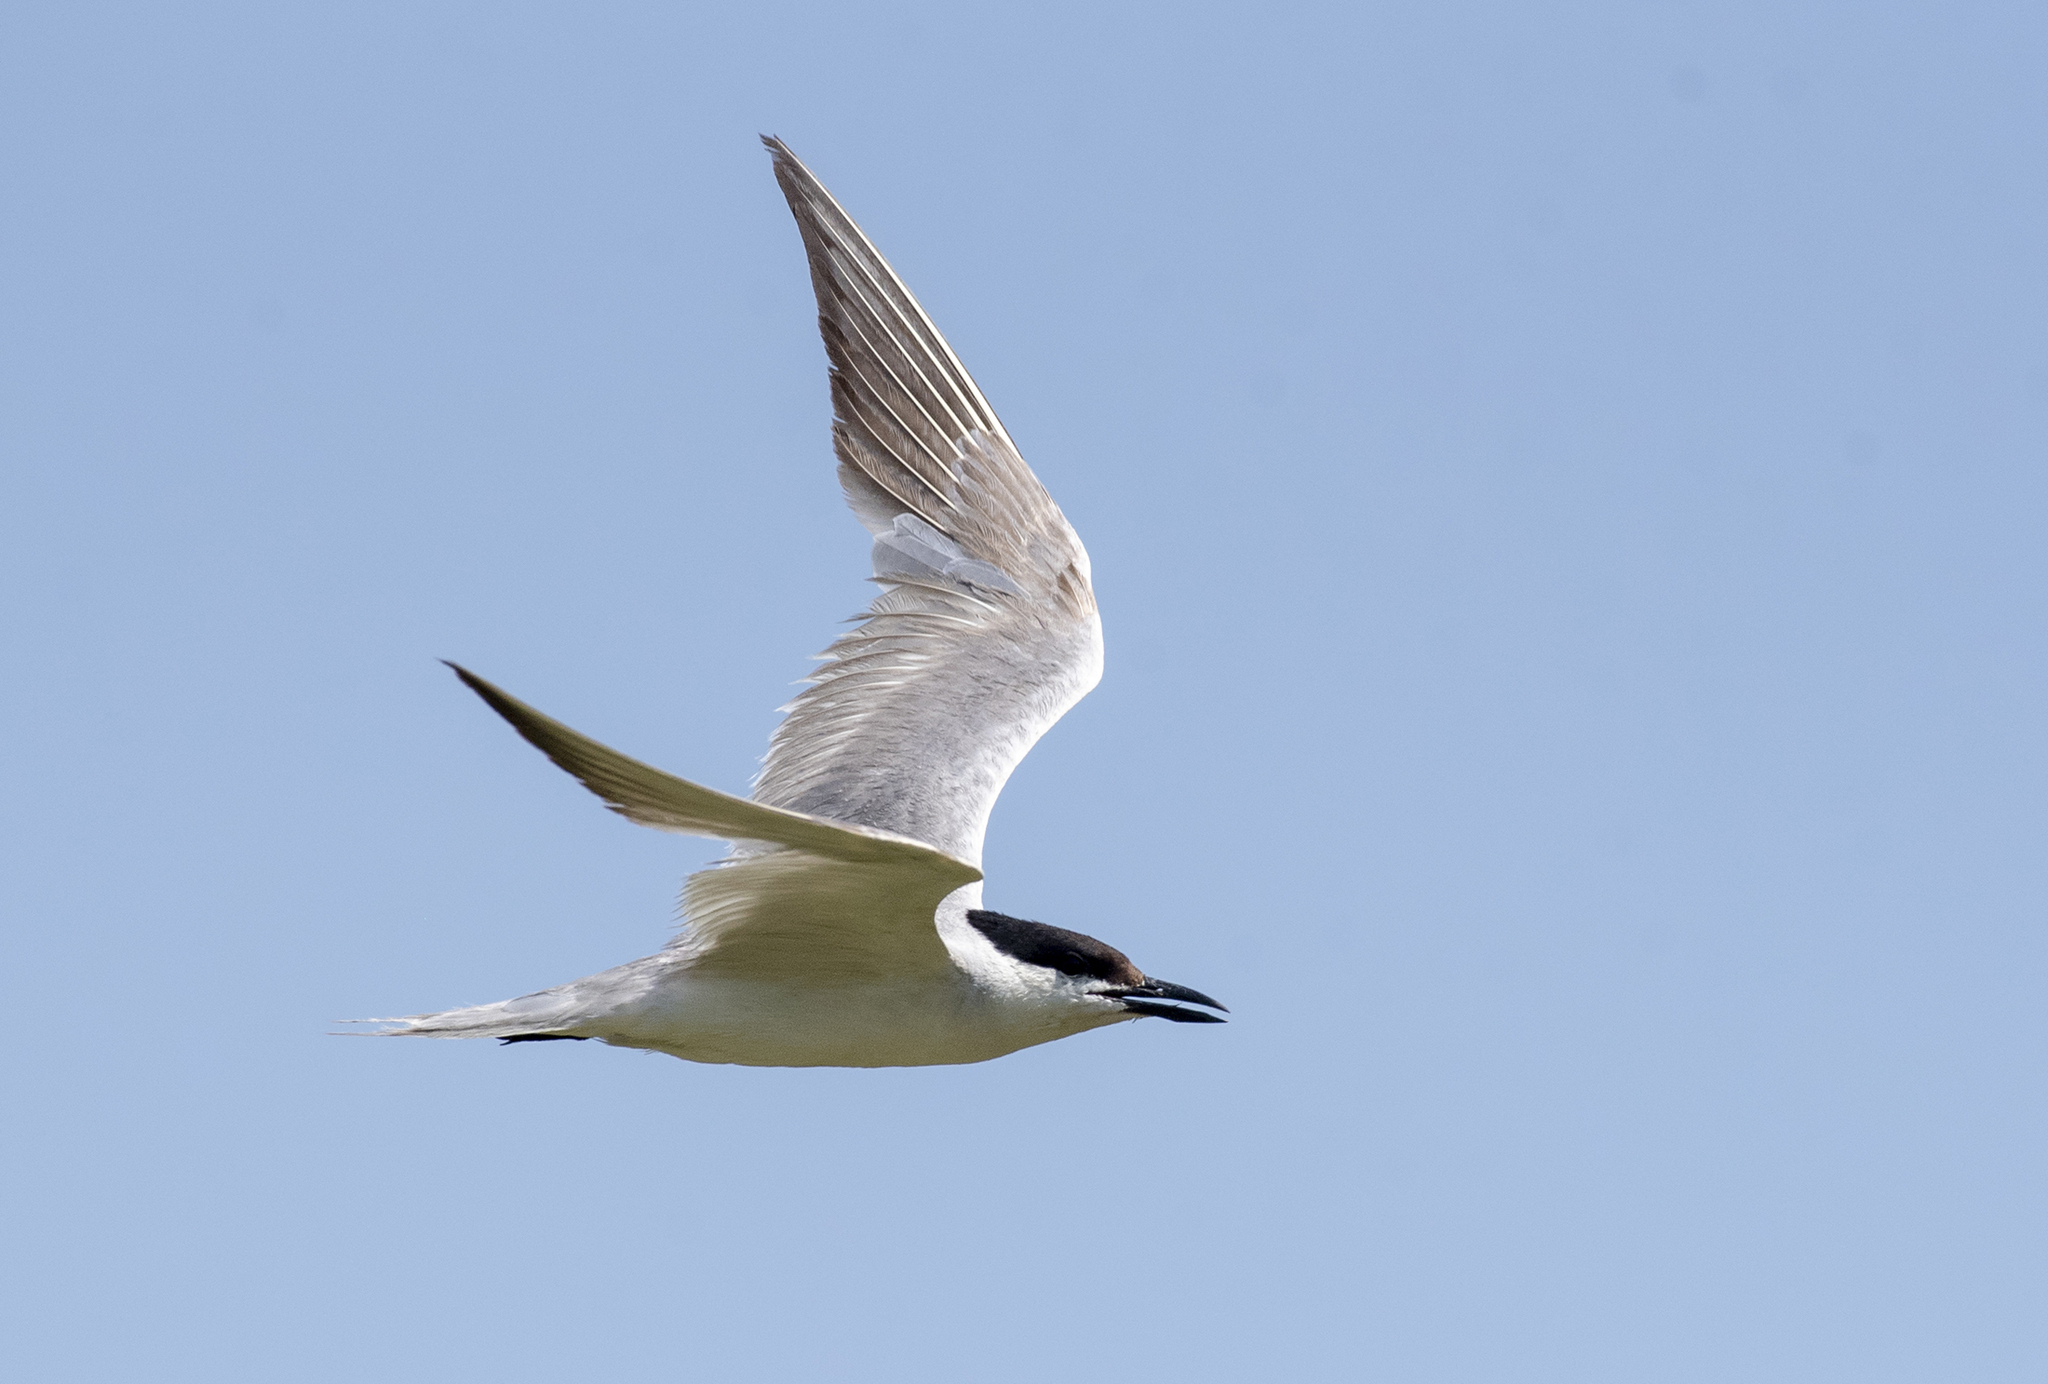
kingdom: Animalia
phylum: Chordata
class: Aves
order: Charadriiformes
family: Laridae
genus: Gelochelidon
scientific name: Gelochelidon nilotica
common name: Gull-billed tern
